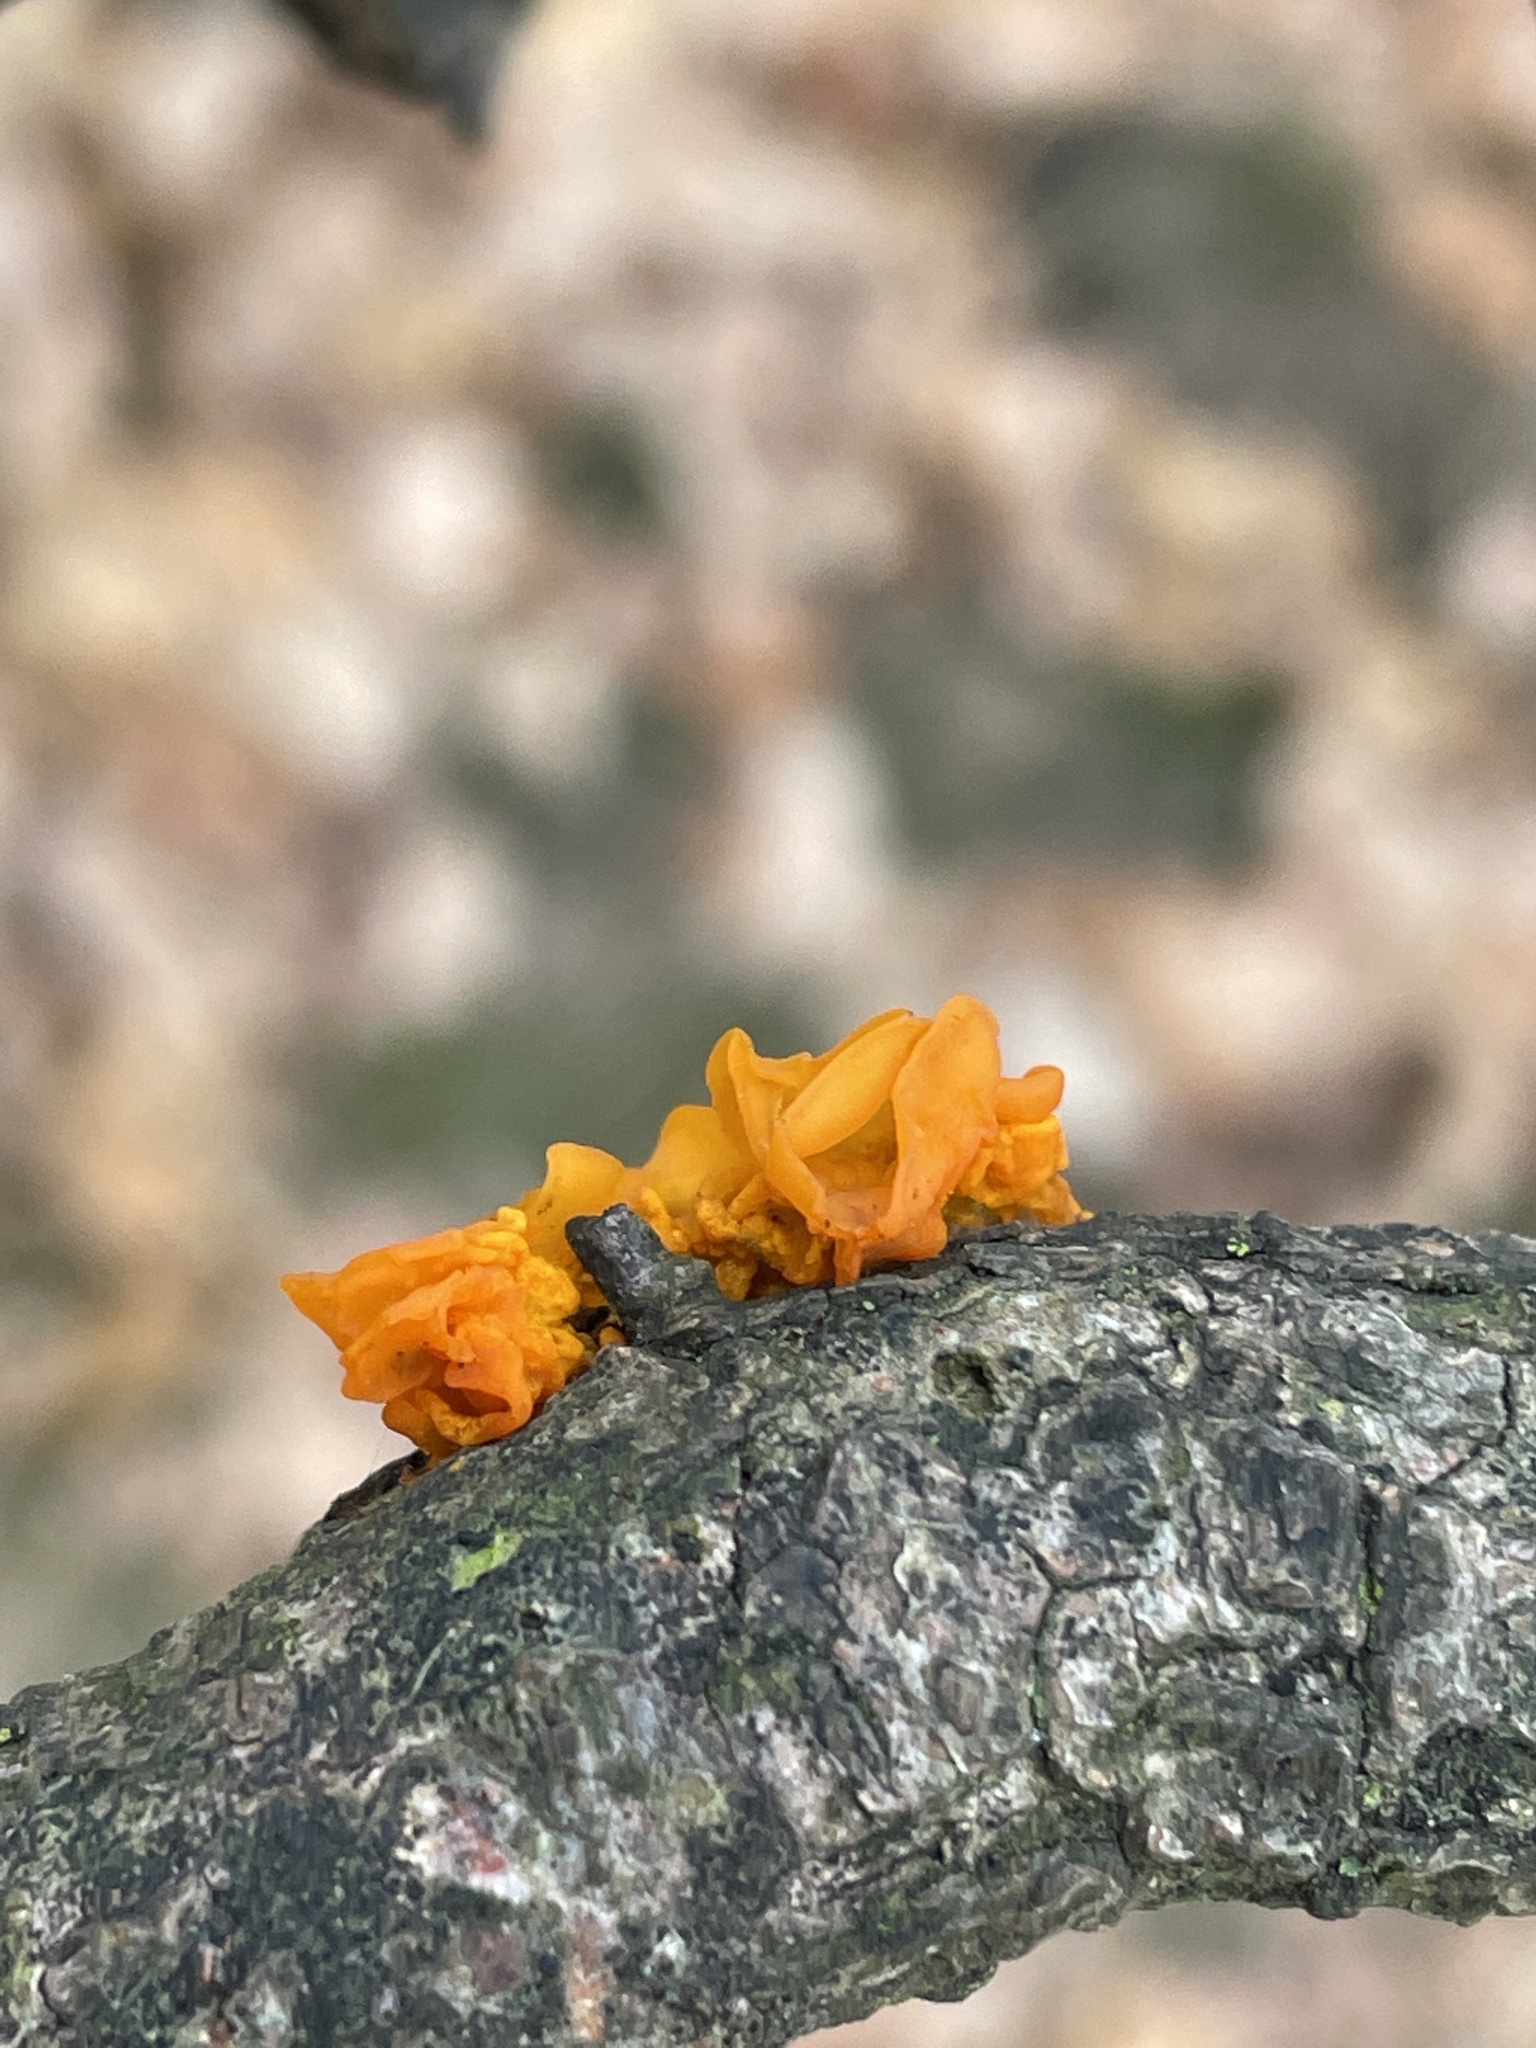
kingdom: Fungi
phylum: Basidiomycota
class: Tremellomycetes
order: Tremellales
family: Tremellaceae
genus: Tremella
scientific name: Tremella mesenterica
